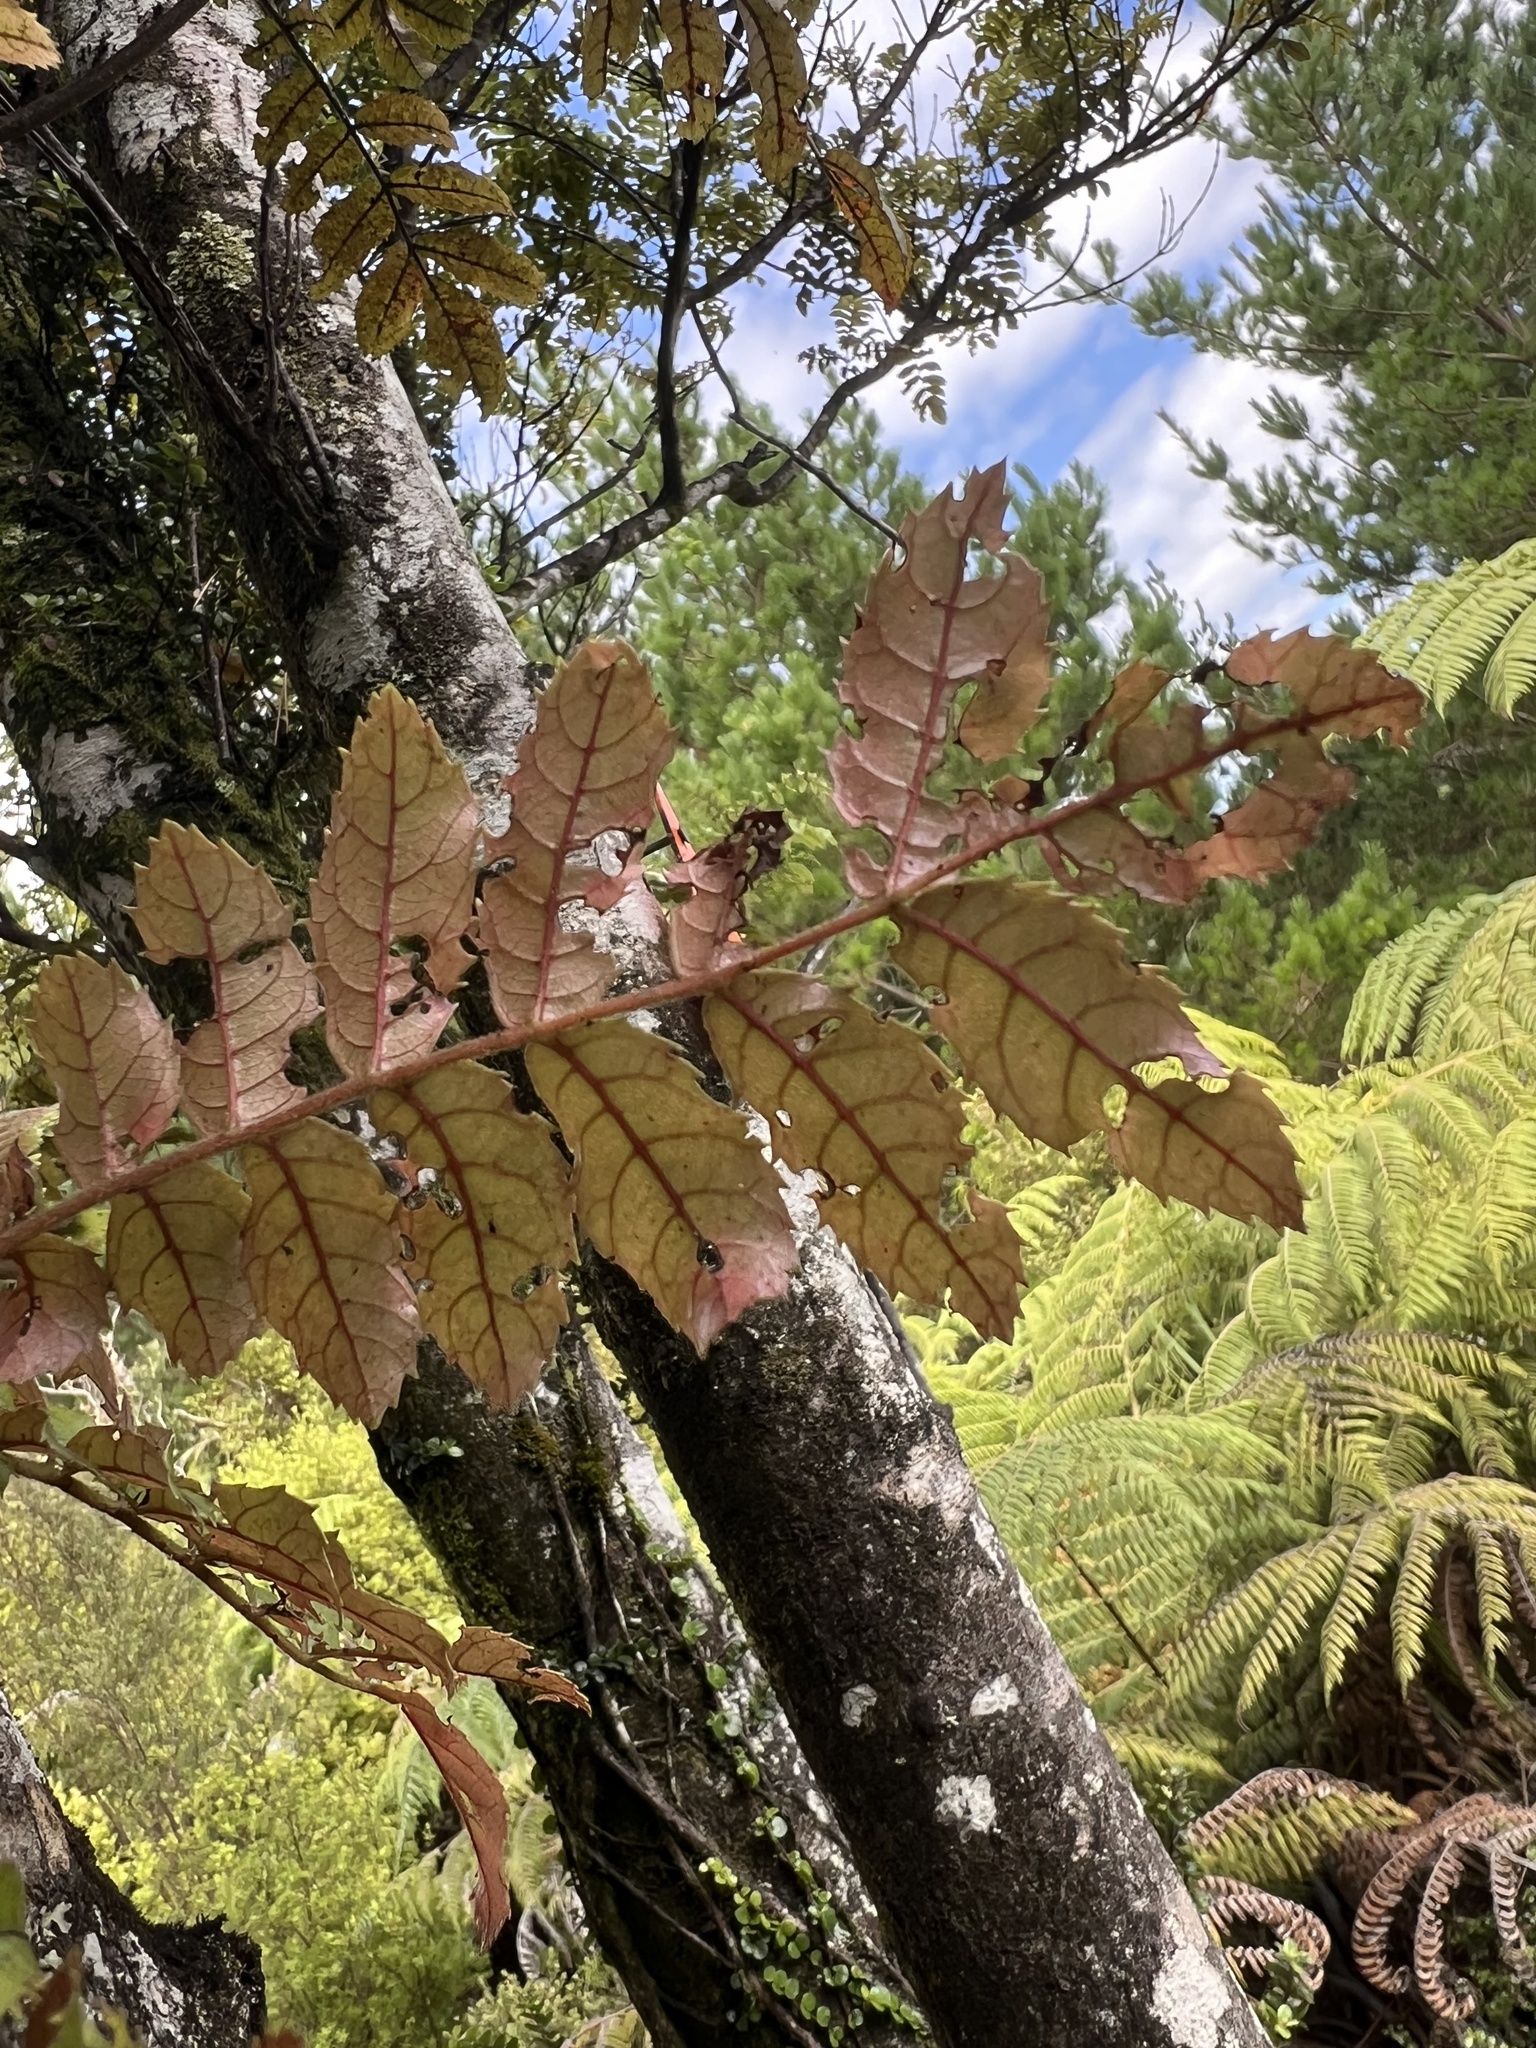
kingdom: Plantae
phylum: Tracheophyta
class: Magnoliopsida
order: Oxalidales
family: Cunoniaceae
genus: Ackama
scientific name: Ackama rosifolia
